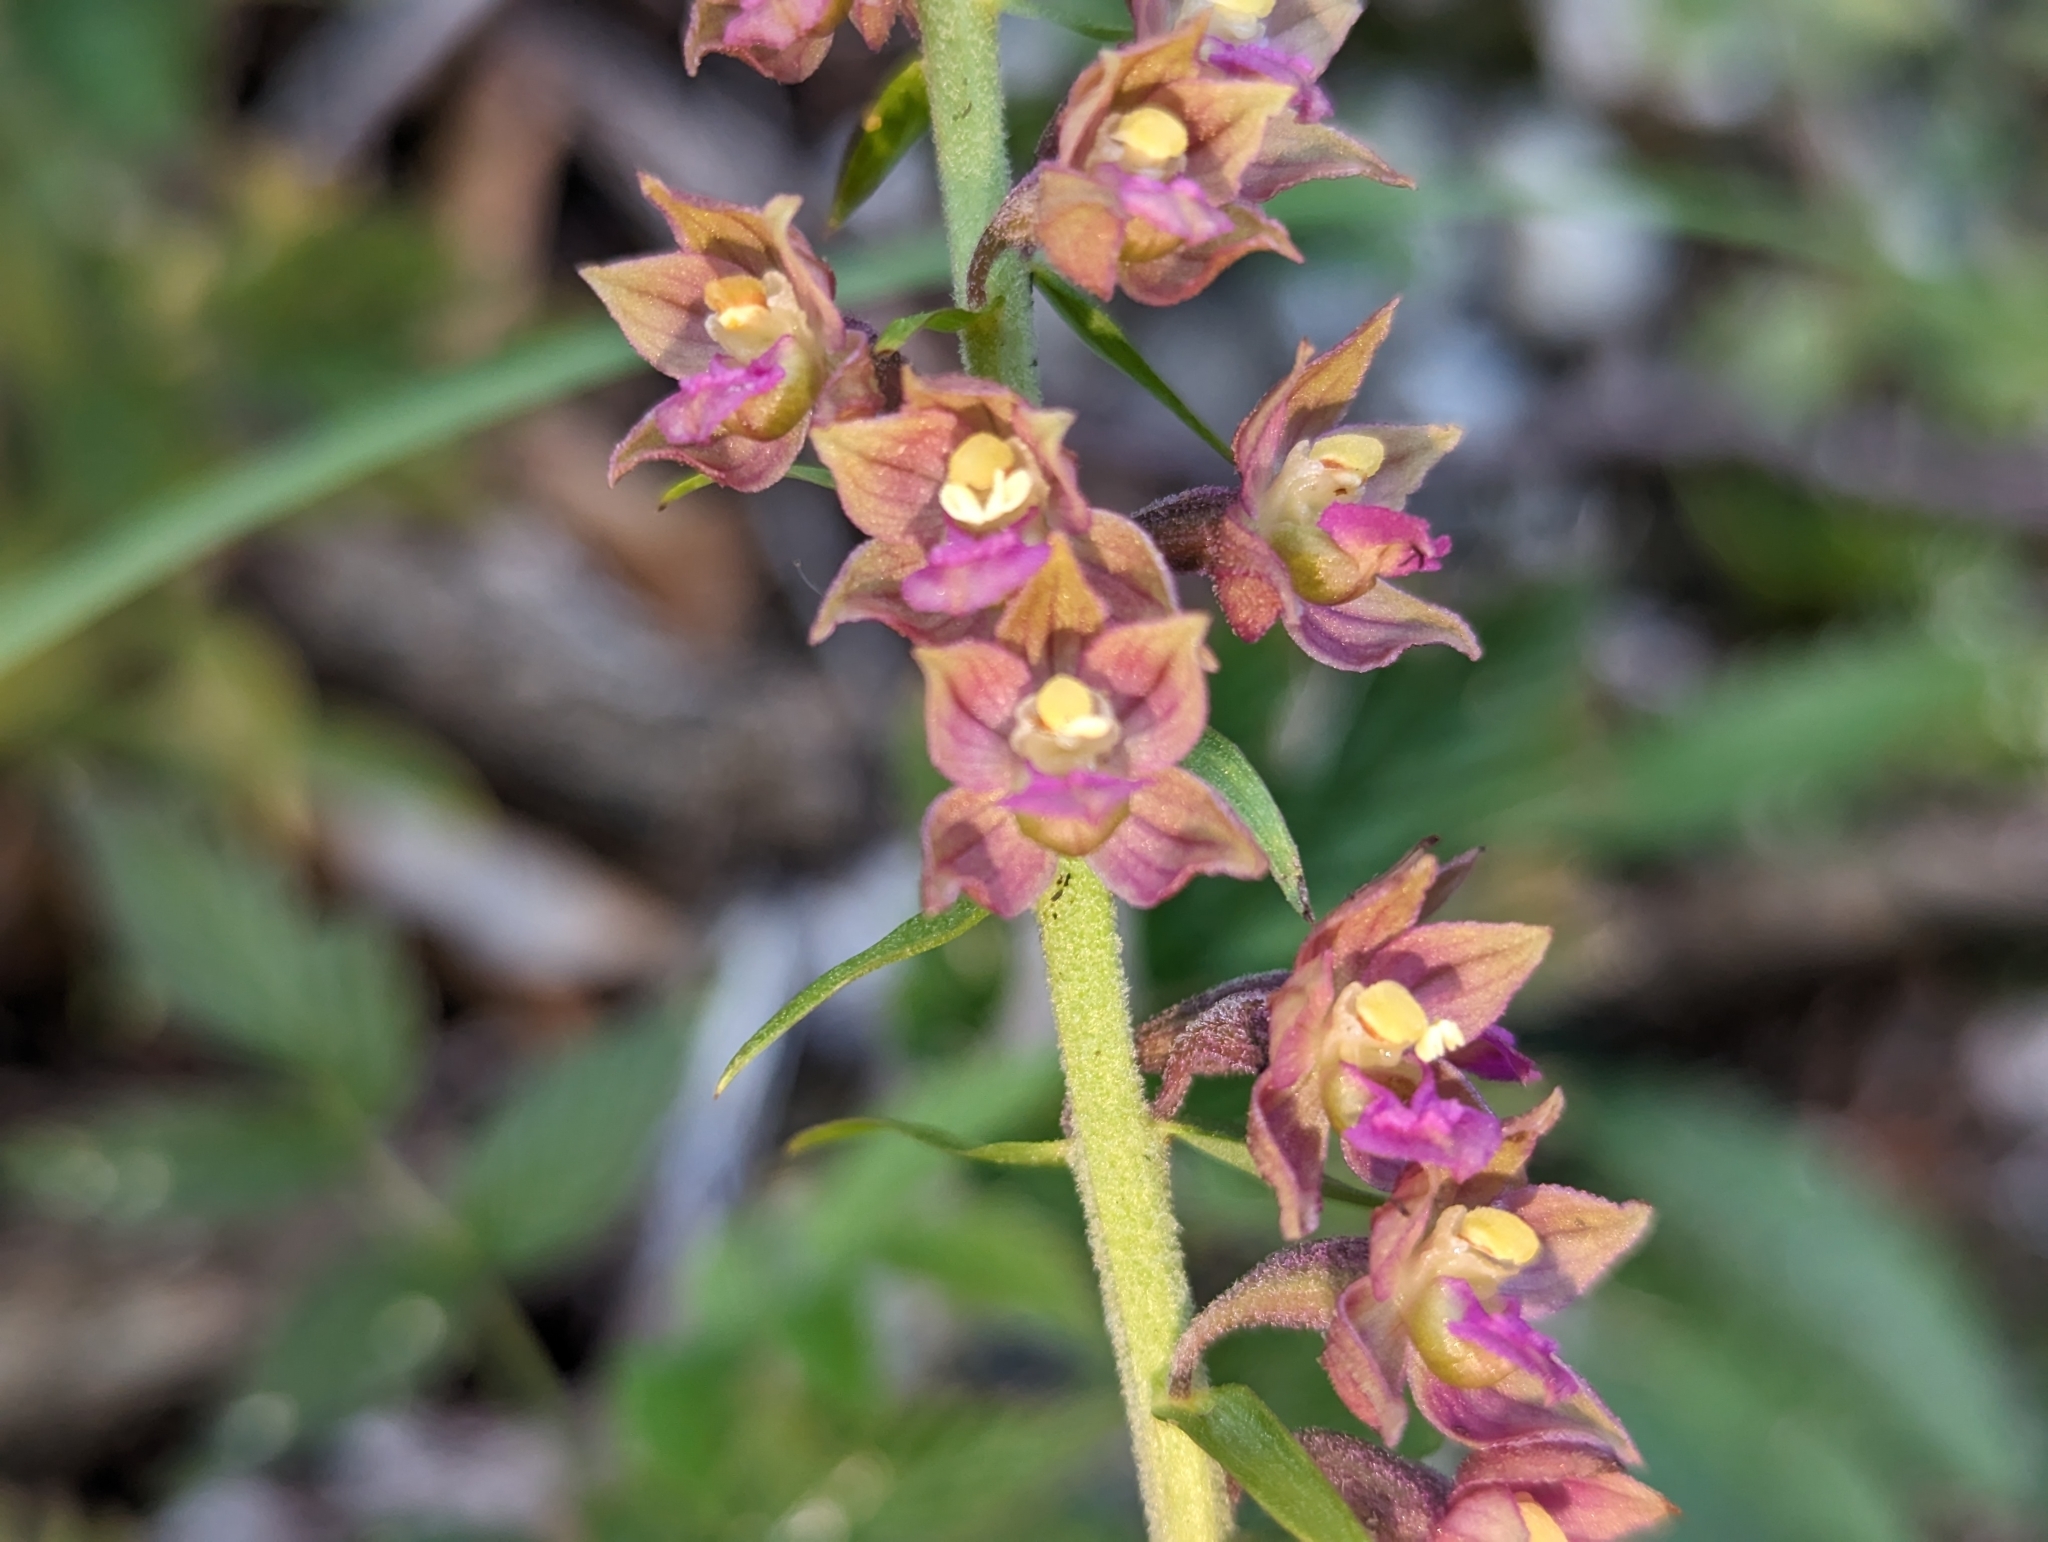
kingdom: Plantae
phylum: Tracheophyta
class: Liliopsida
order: Asparagales
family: Orchidaceae
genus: Epipactis
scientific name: Epipactis atrorubens
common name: Dark-red helleborine
